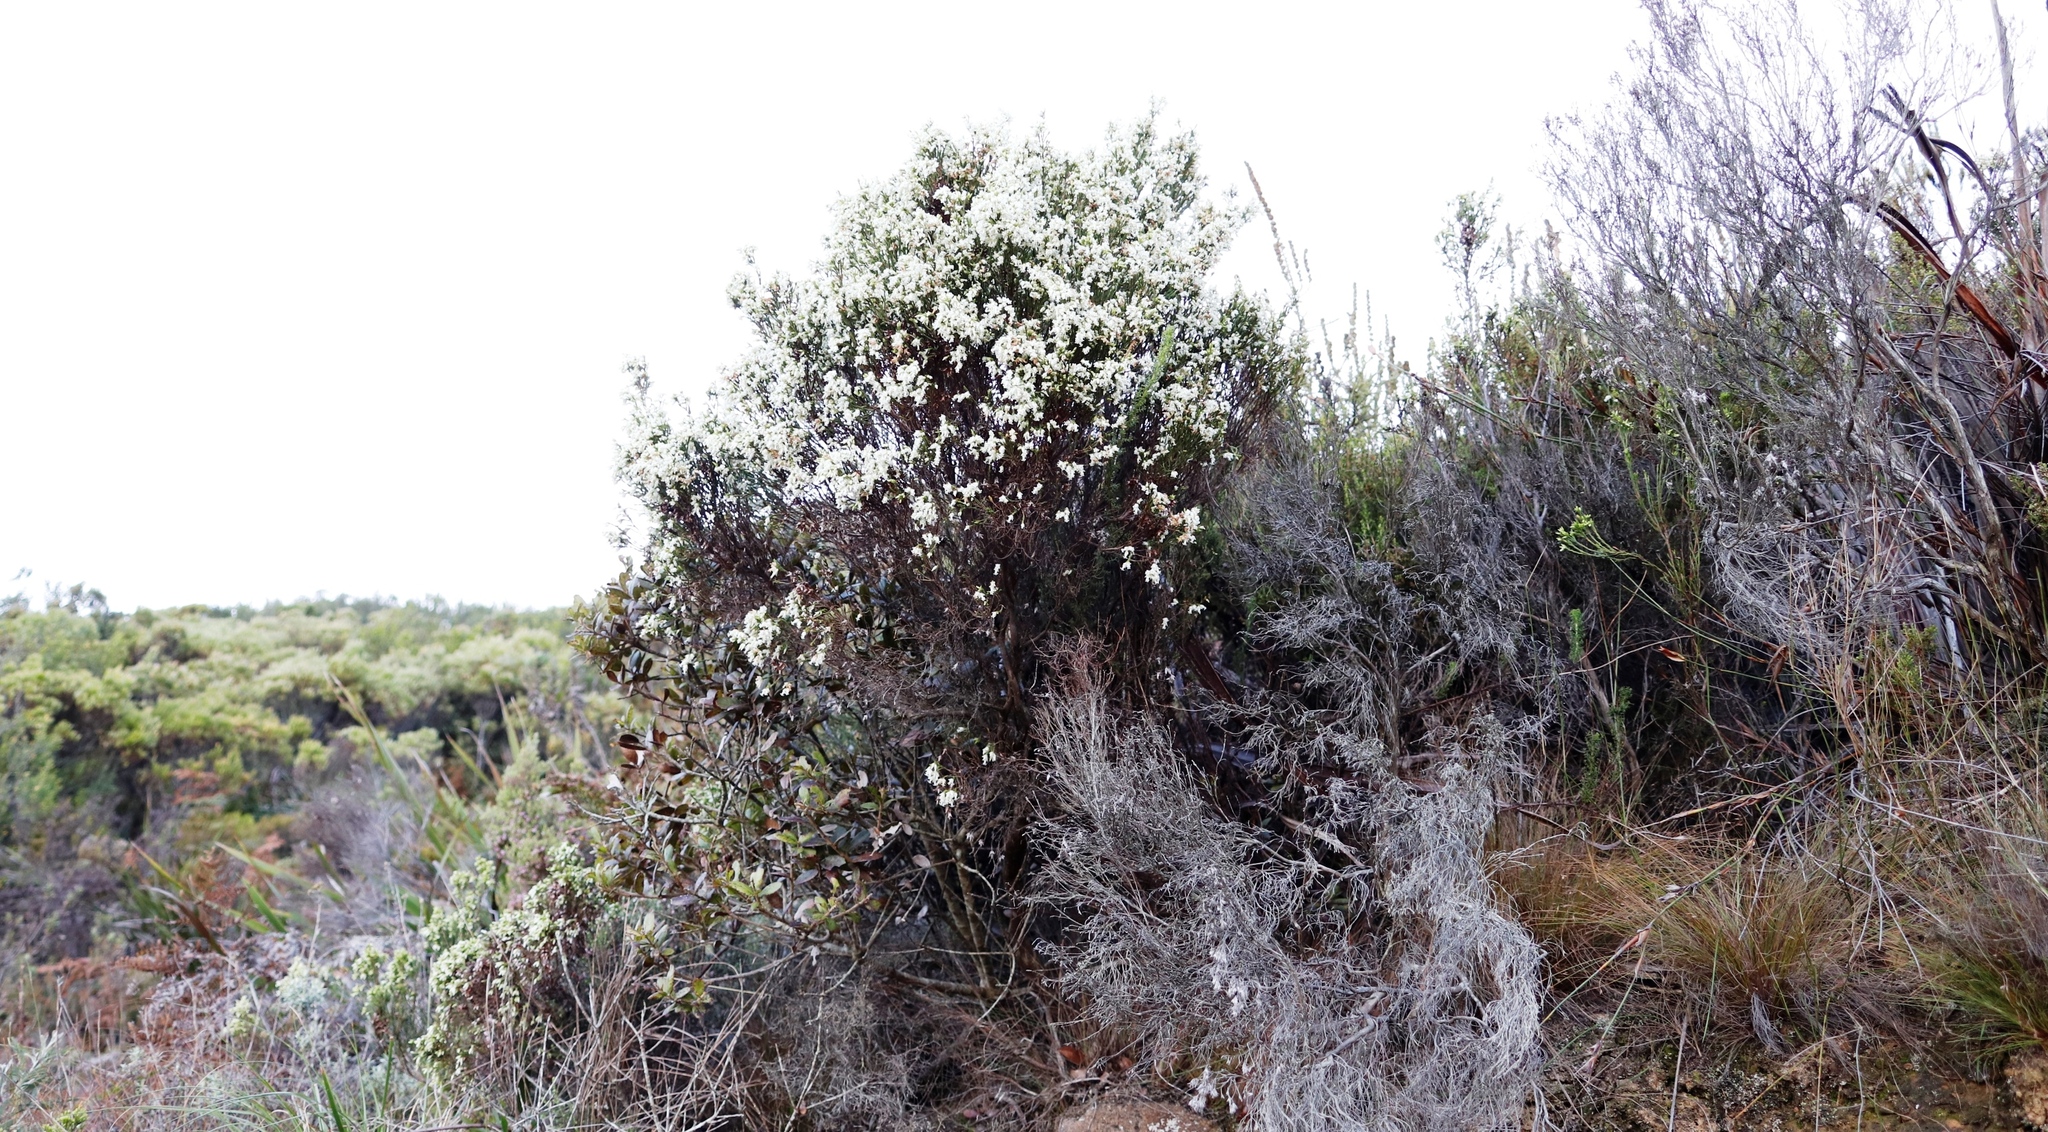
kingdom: Plantae
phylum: Tracheophyta
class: Magnoliopsida
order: Ericales
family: Ericaceae
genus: Erica
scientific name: Erica lutea
